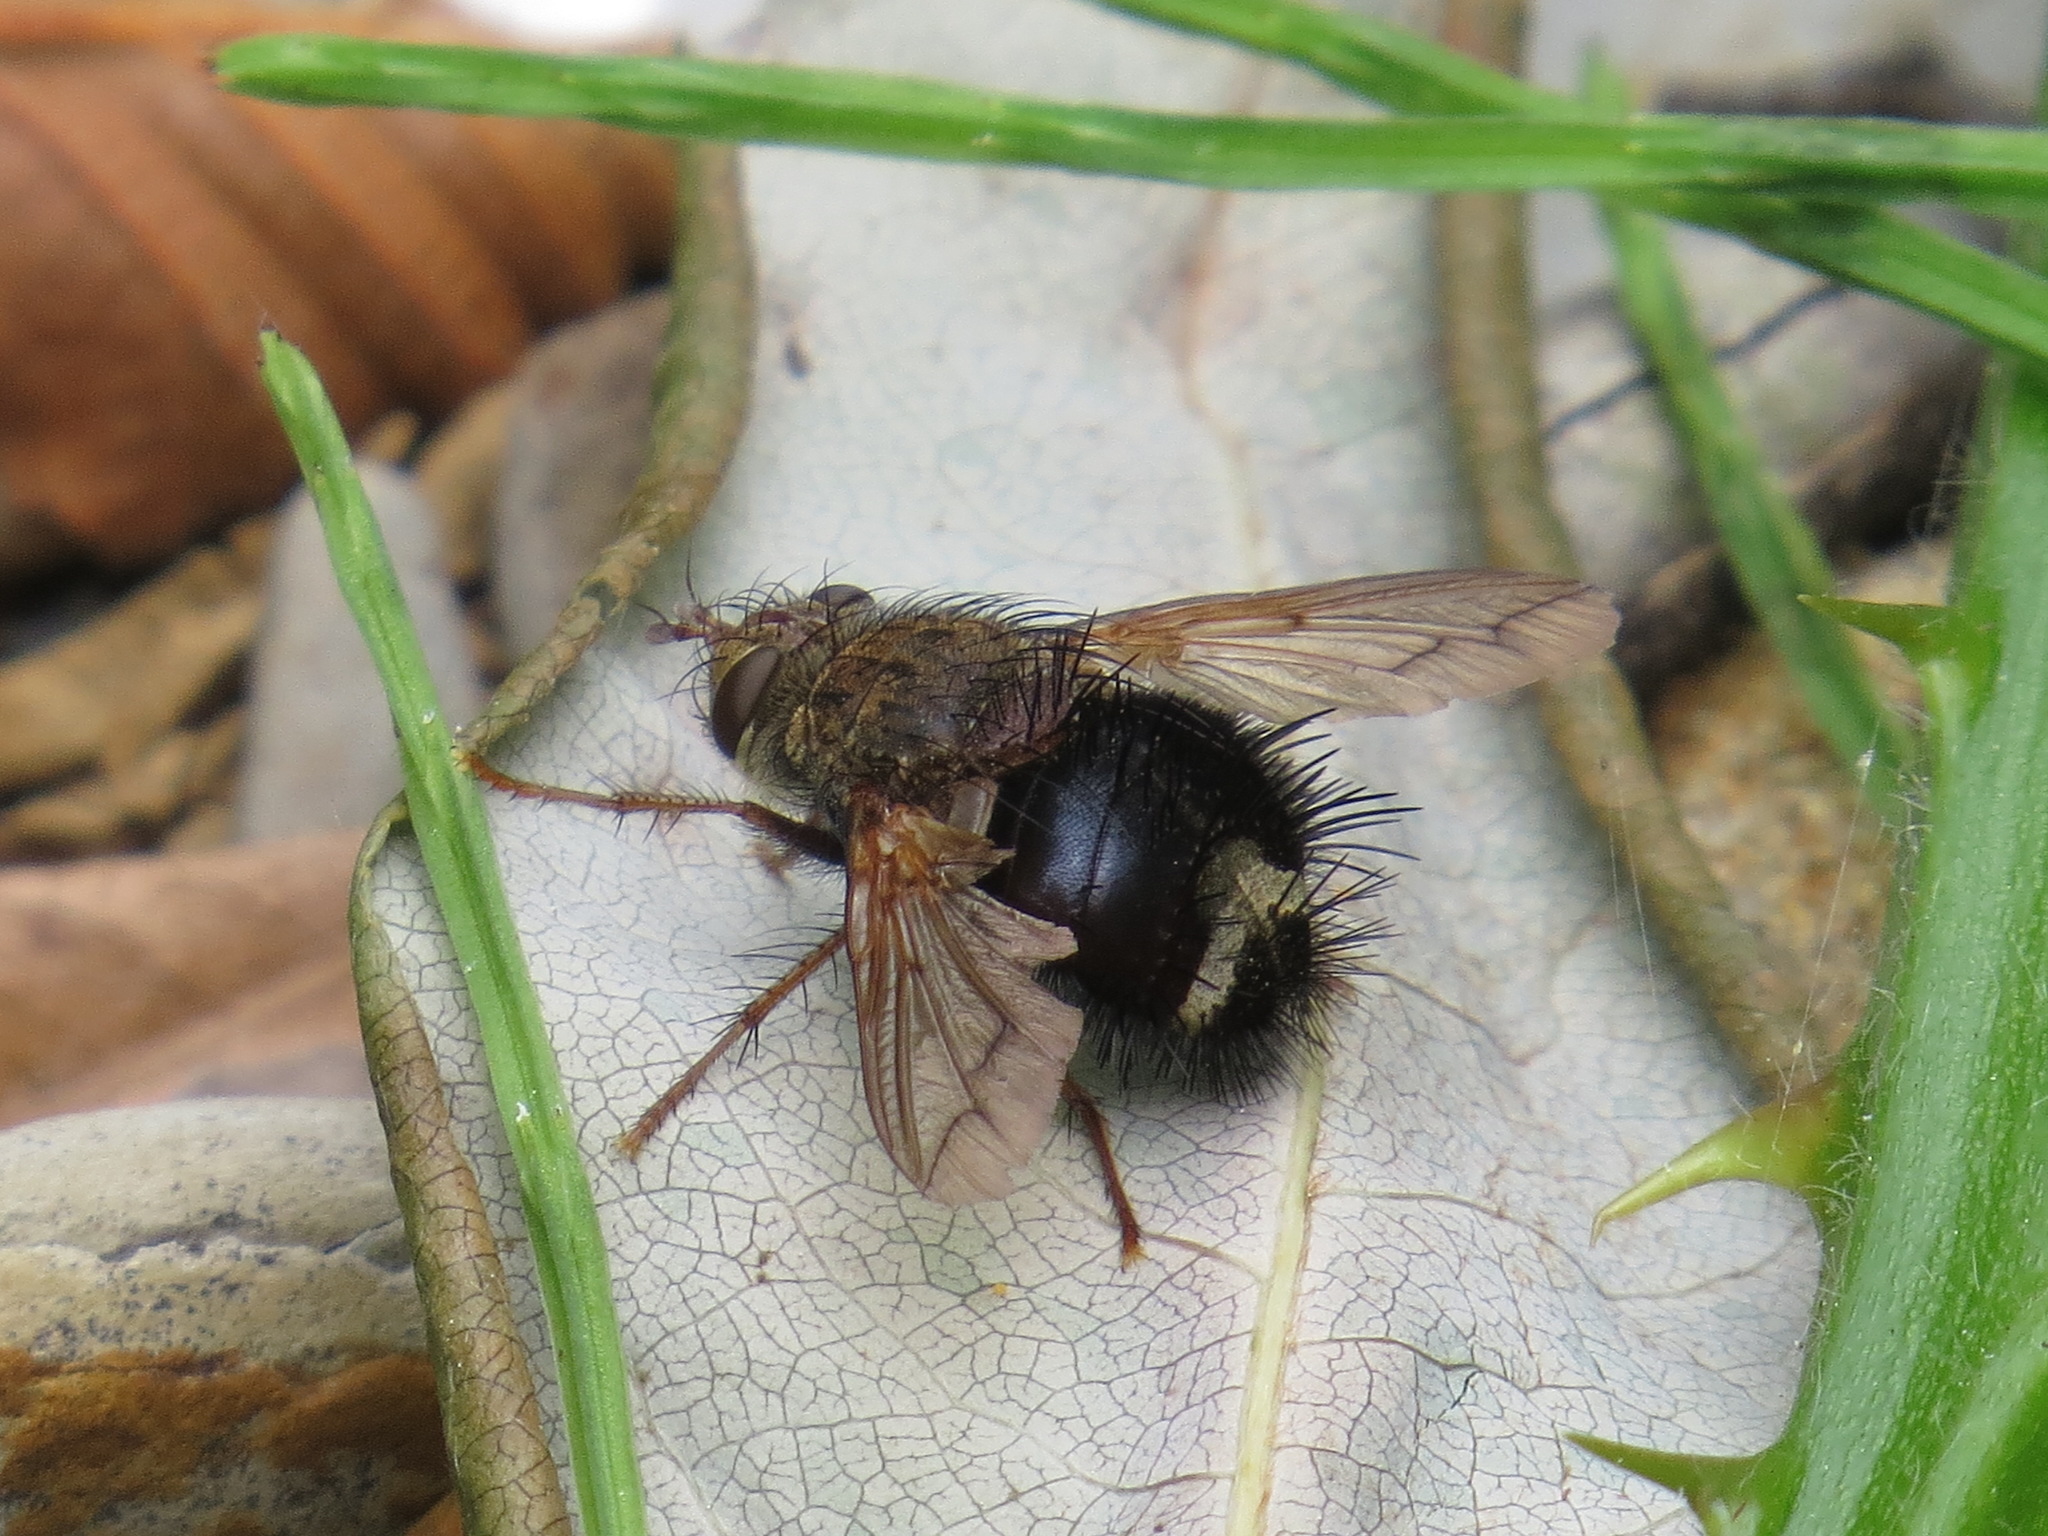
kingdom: Animalia
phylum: Arthropoda
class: Insecta
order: Diptera
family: Tachinidae
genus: Epalpus
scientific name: Epalpus signifer
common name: Early tachinid fly
